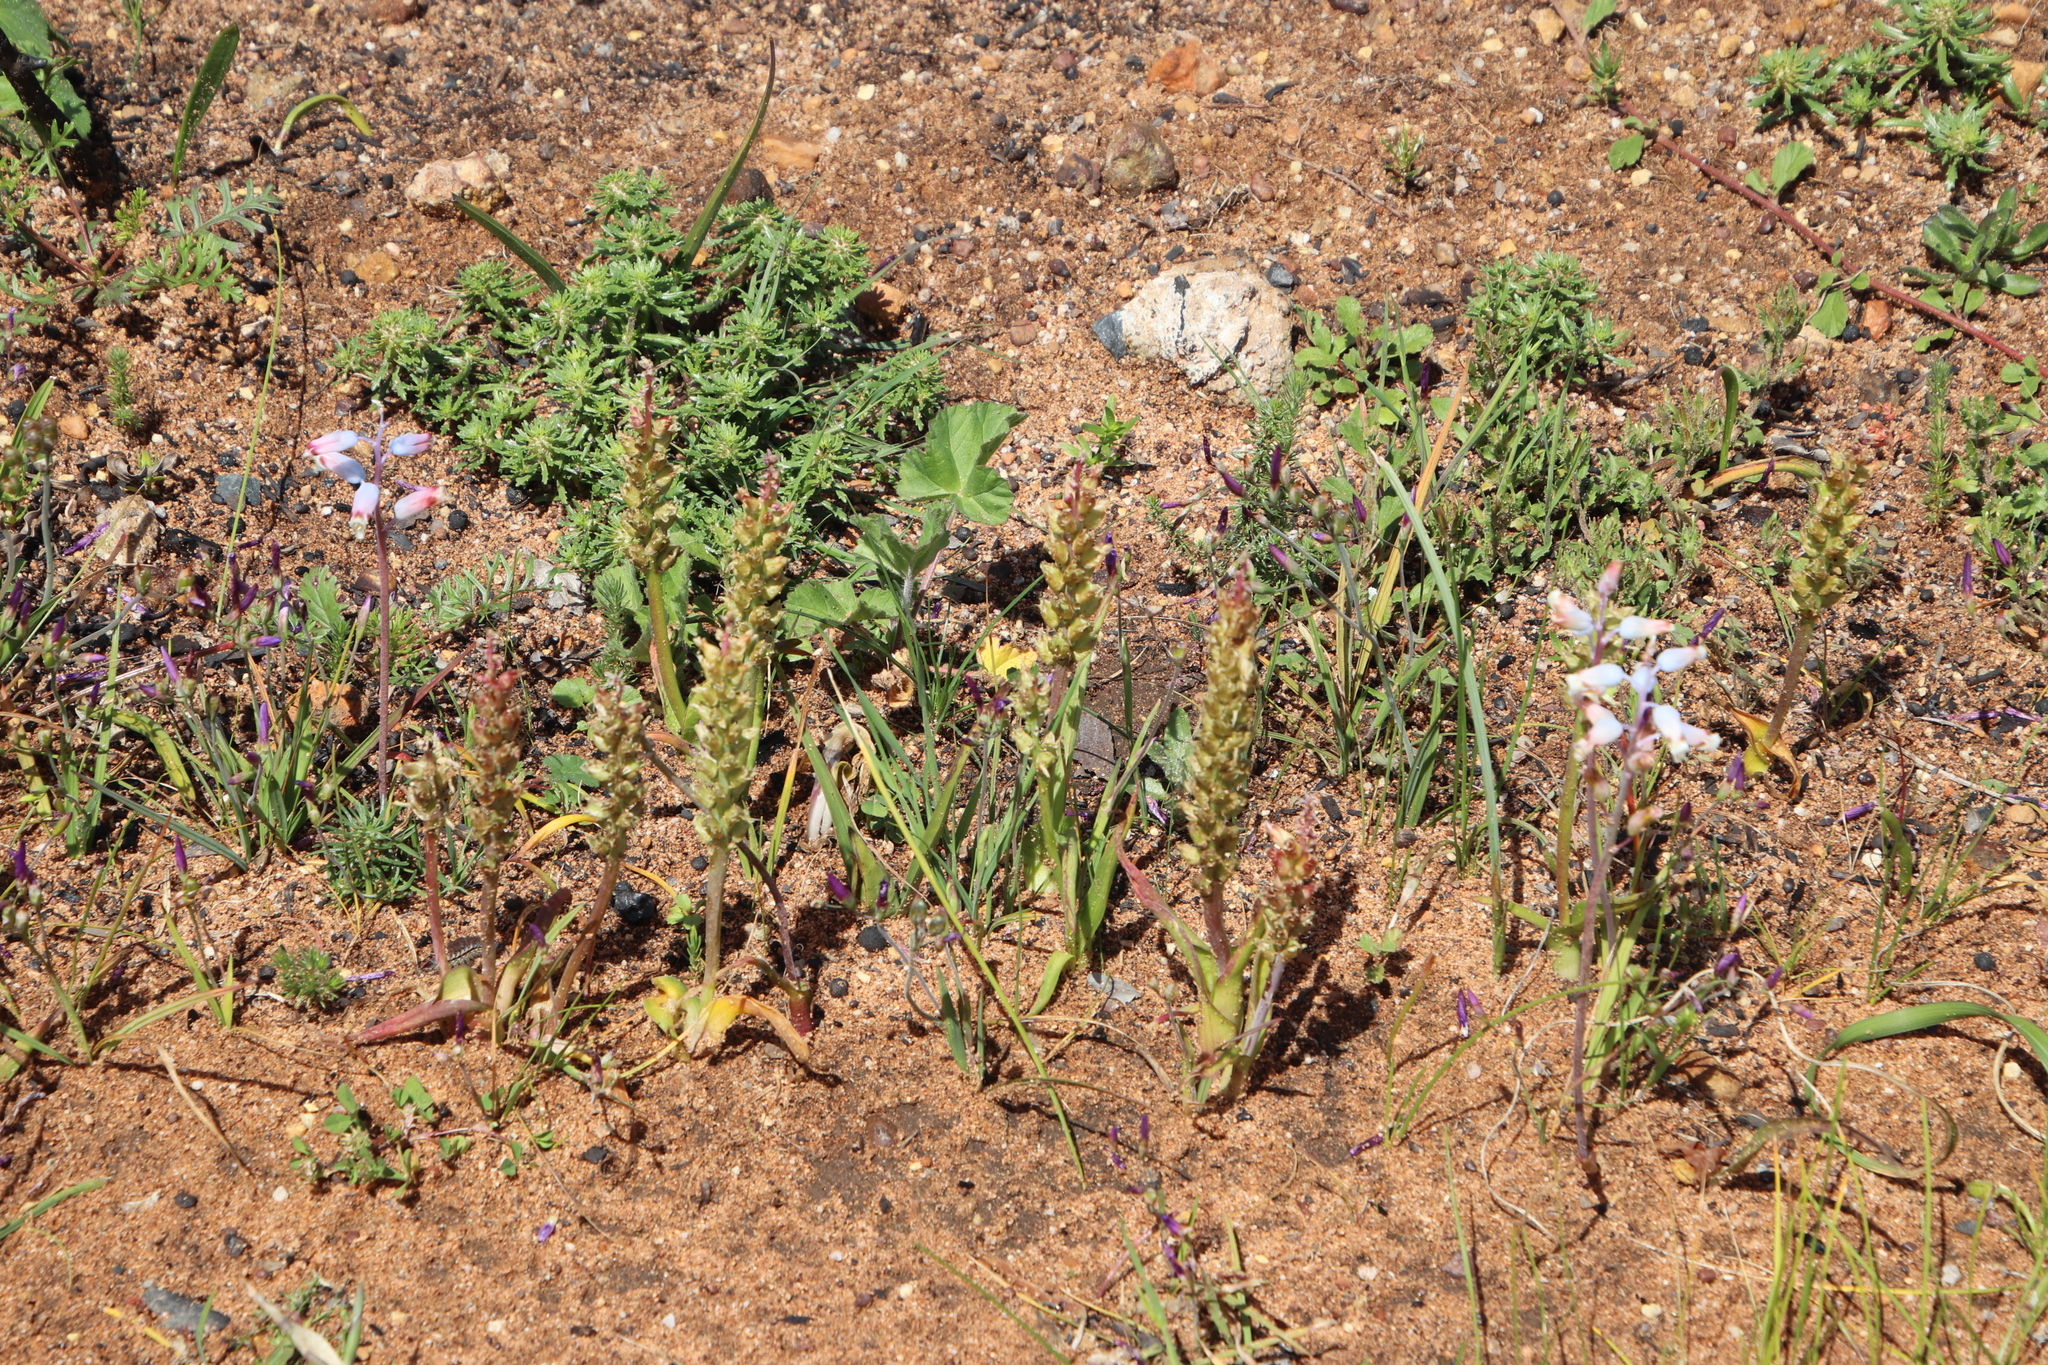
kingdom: Plantae
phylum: Tracheophyta
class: Liliopsida
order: Asparagales
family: Asparagaceae
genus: Lachenalia
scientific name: Lachenalia longibracteata
